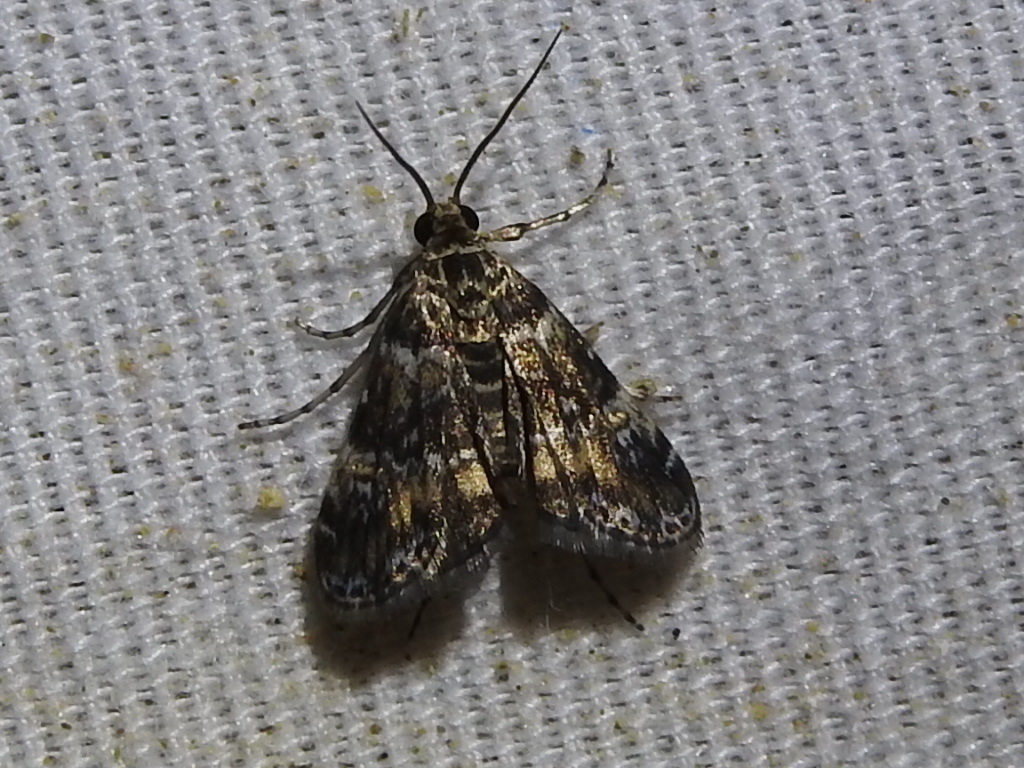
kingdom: Animalia
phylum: Arthropoda
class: Insecta
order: Lepidoptera
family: Crambidae
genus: Elophila
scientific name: Elophila obliteralis
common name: Waterlily leafcutter moth
